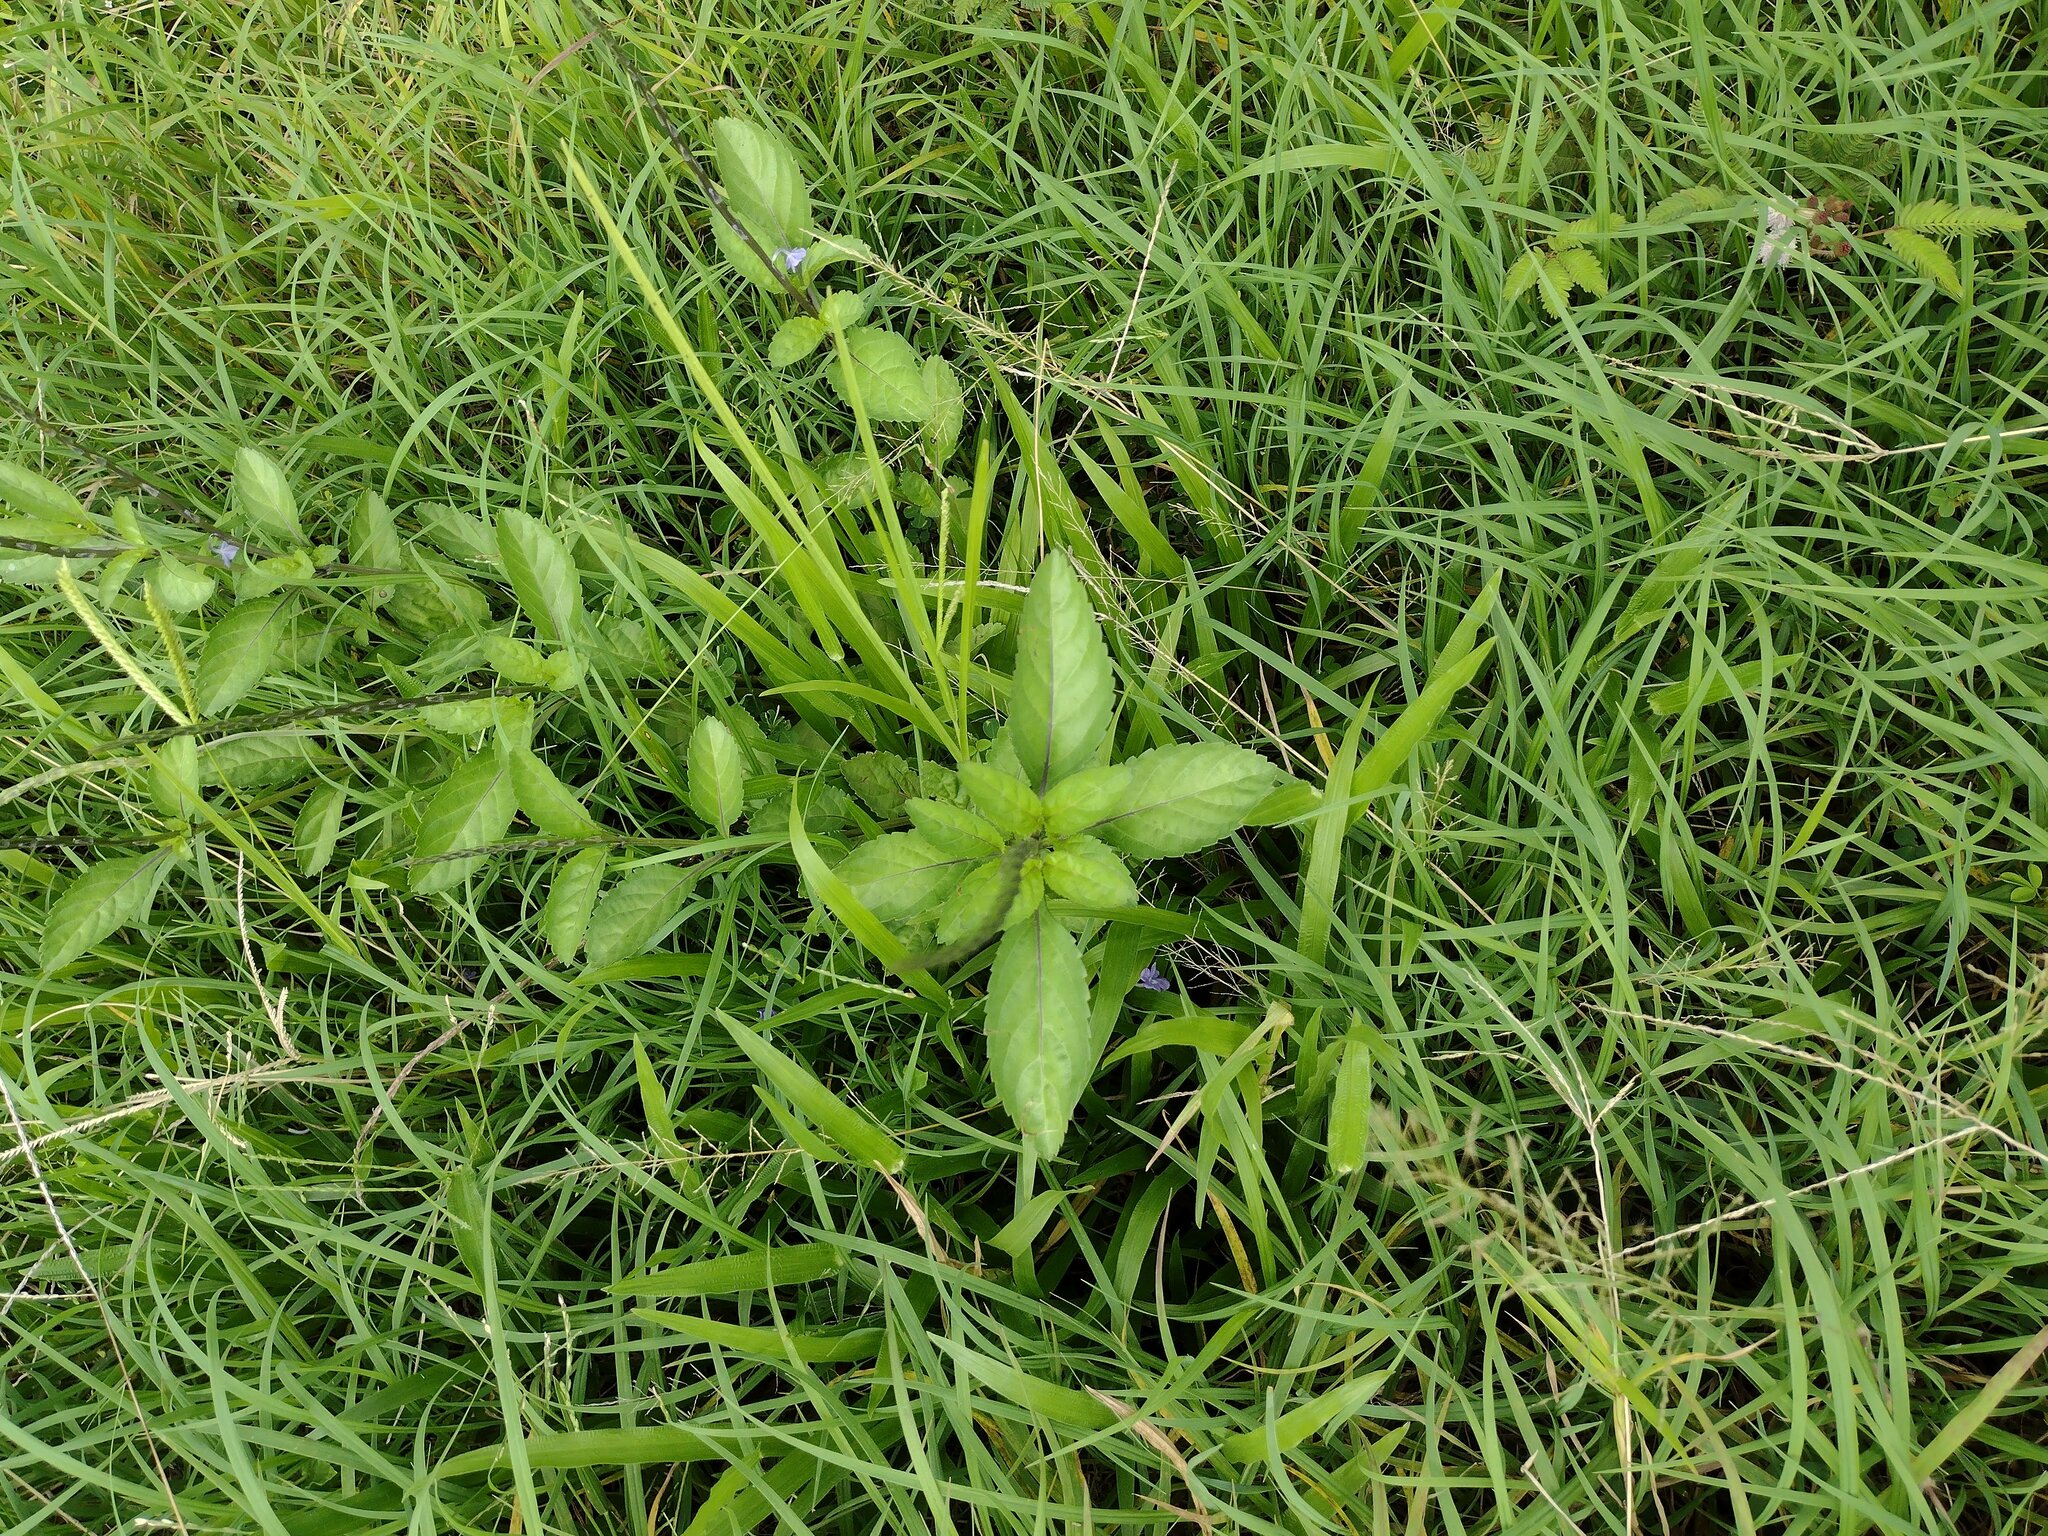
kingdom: Plantae
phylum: Tracheophyta
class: Magnoliopsida
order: Lamiales
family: Verbenaceae
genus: Stachytarpheta
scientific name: Stachytarpheta jamaicensis
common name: Light-blue snakeweed
